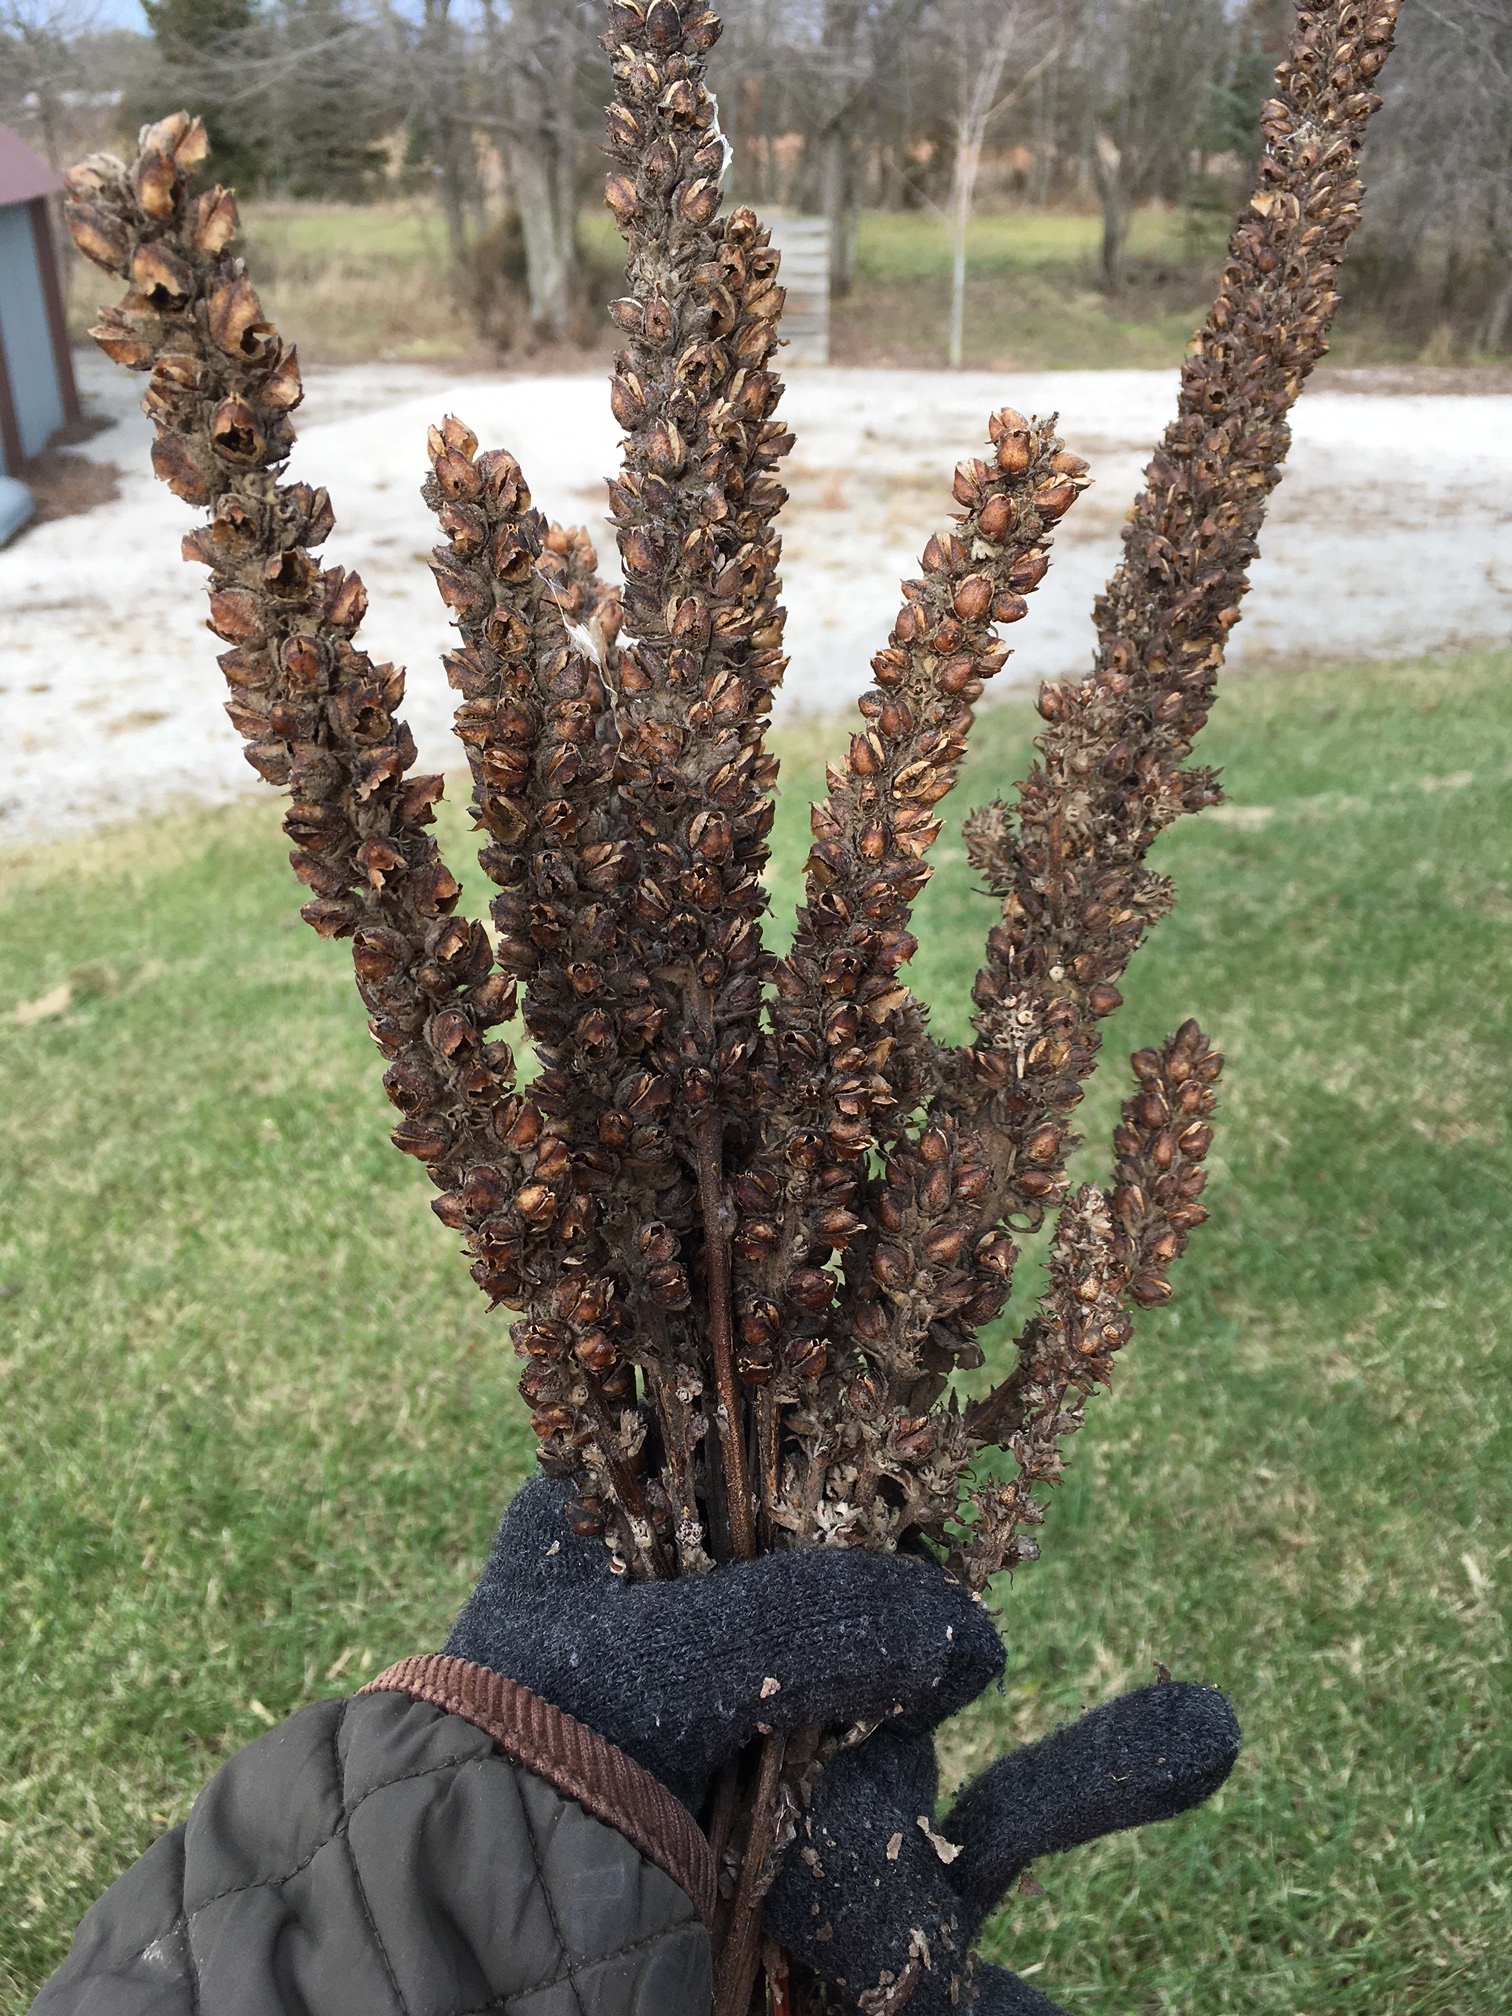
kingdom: Plantae
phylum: Tracheophyta
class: Magnoliopsida
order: Lamiales
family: Scrophulariaceae
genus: Verbascum
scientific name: Verbascum thapsus
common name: Common mullein
